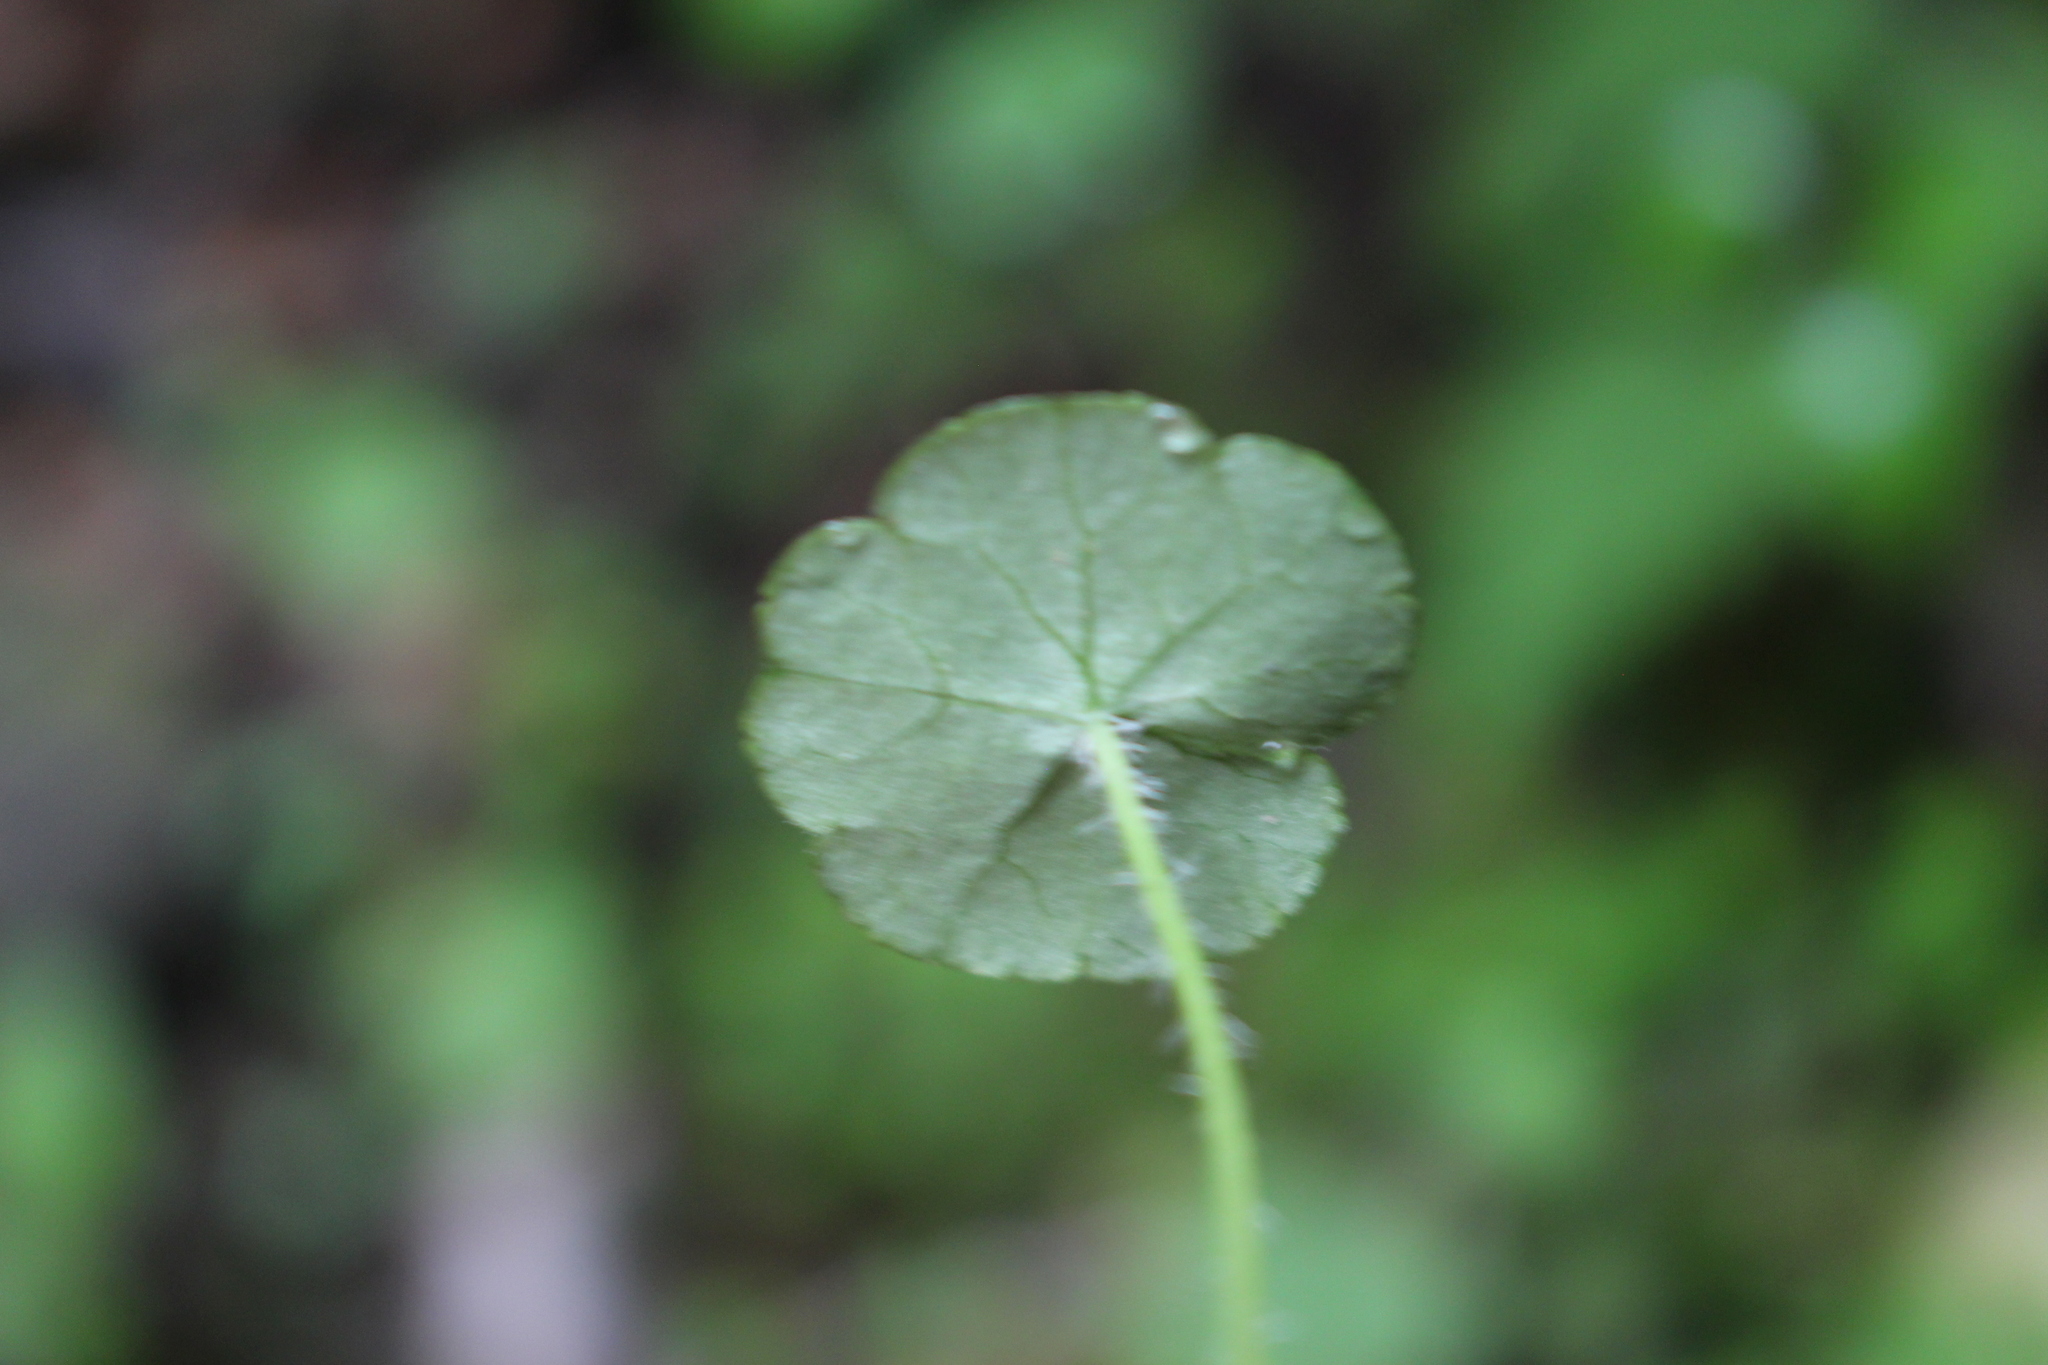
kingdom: Plantae
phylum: Tracheophyta
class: Magnoliopsida
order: Apiales
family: Araliaceae
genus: Hydrocotyle
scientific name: Hydrocotyle pterocarpa
